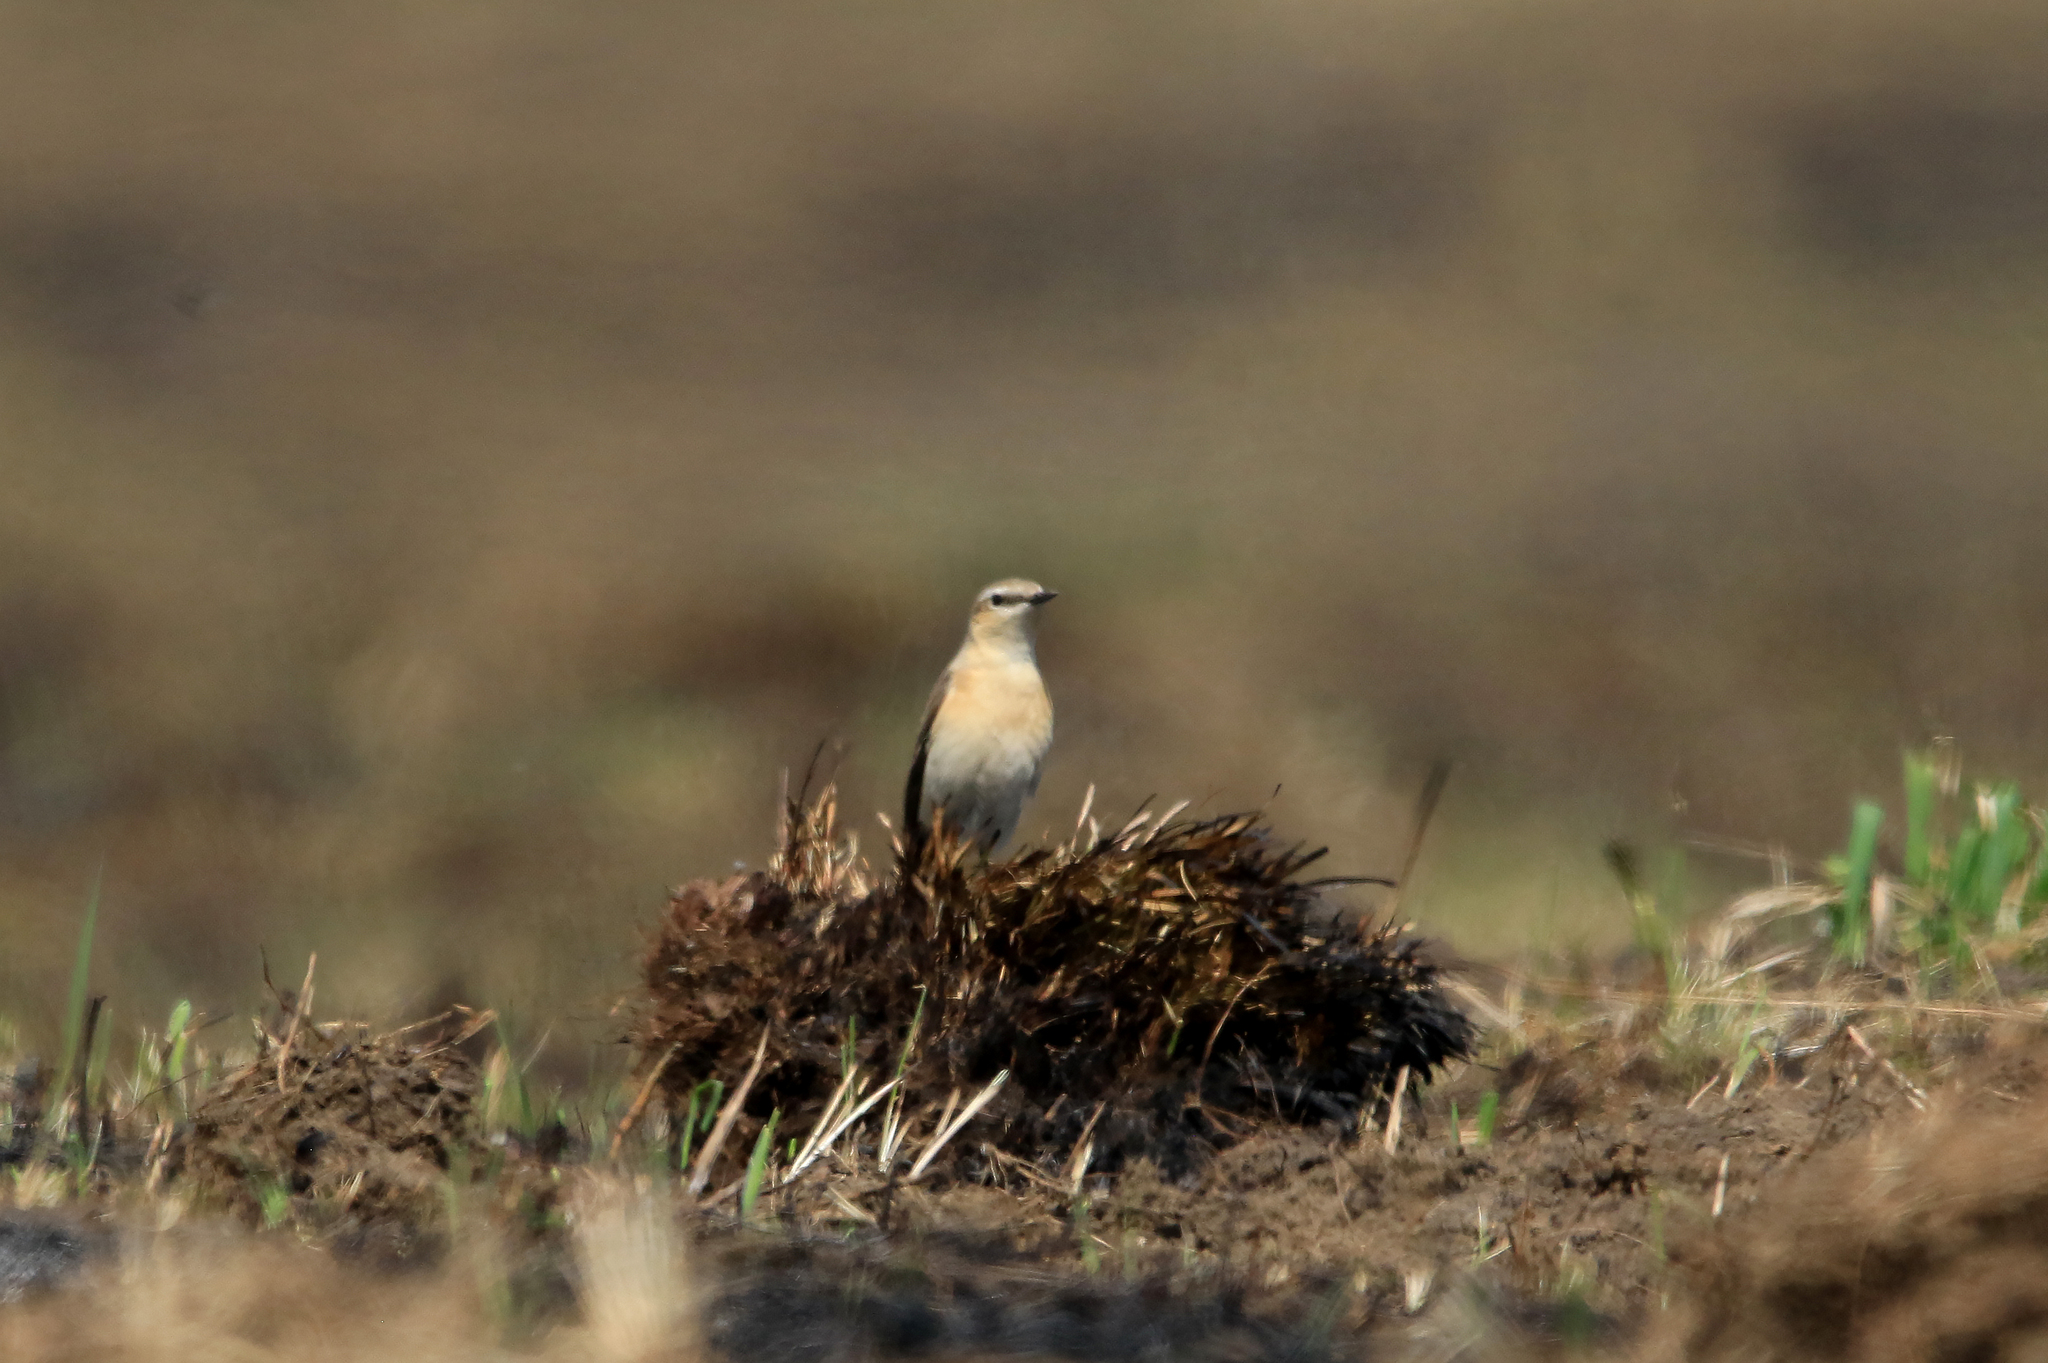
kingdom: Animalia
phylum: Chordata
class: Aves
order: Passeriformes
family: Muscicapidae
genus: Oenanthe
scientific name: Oenanthe oenanthe
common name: Northern wheatear
